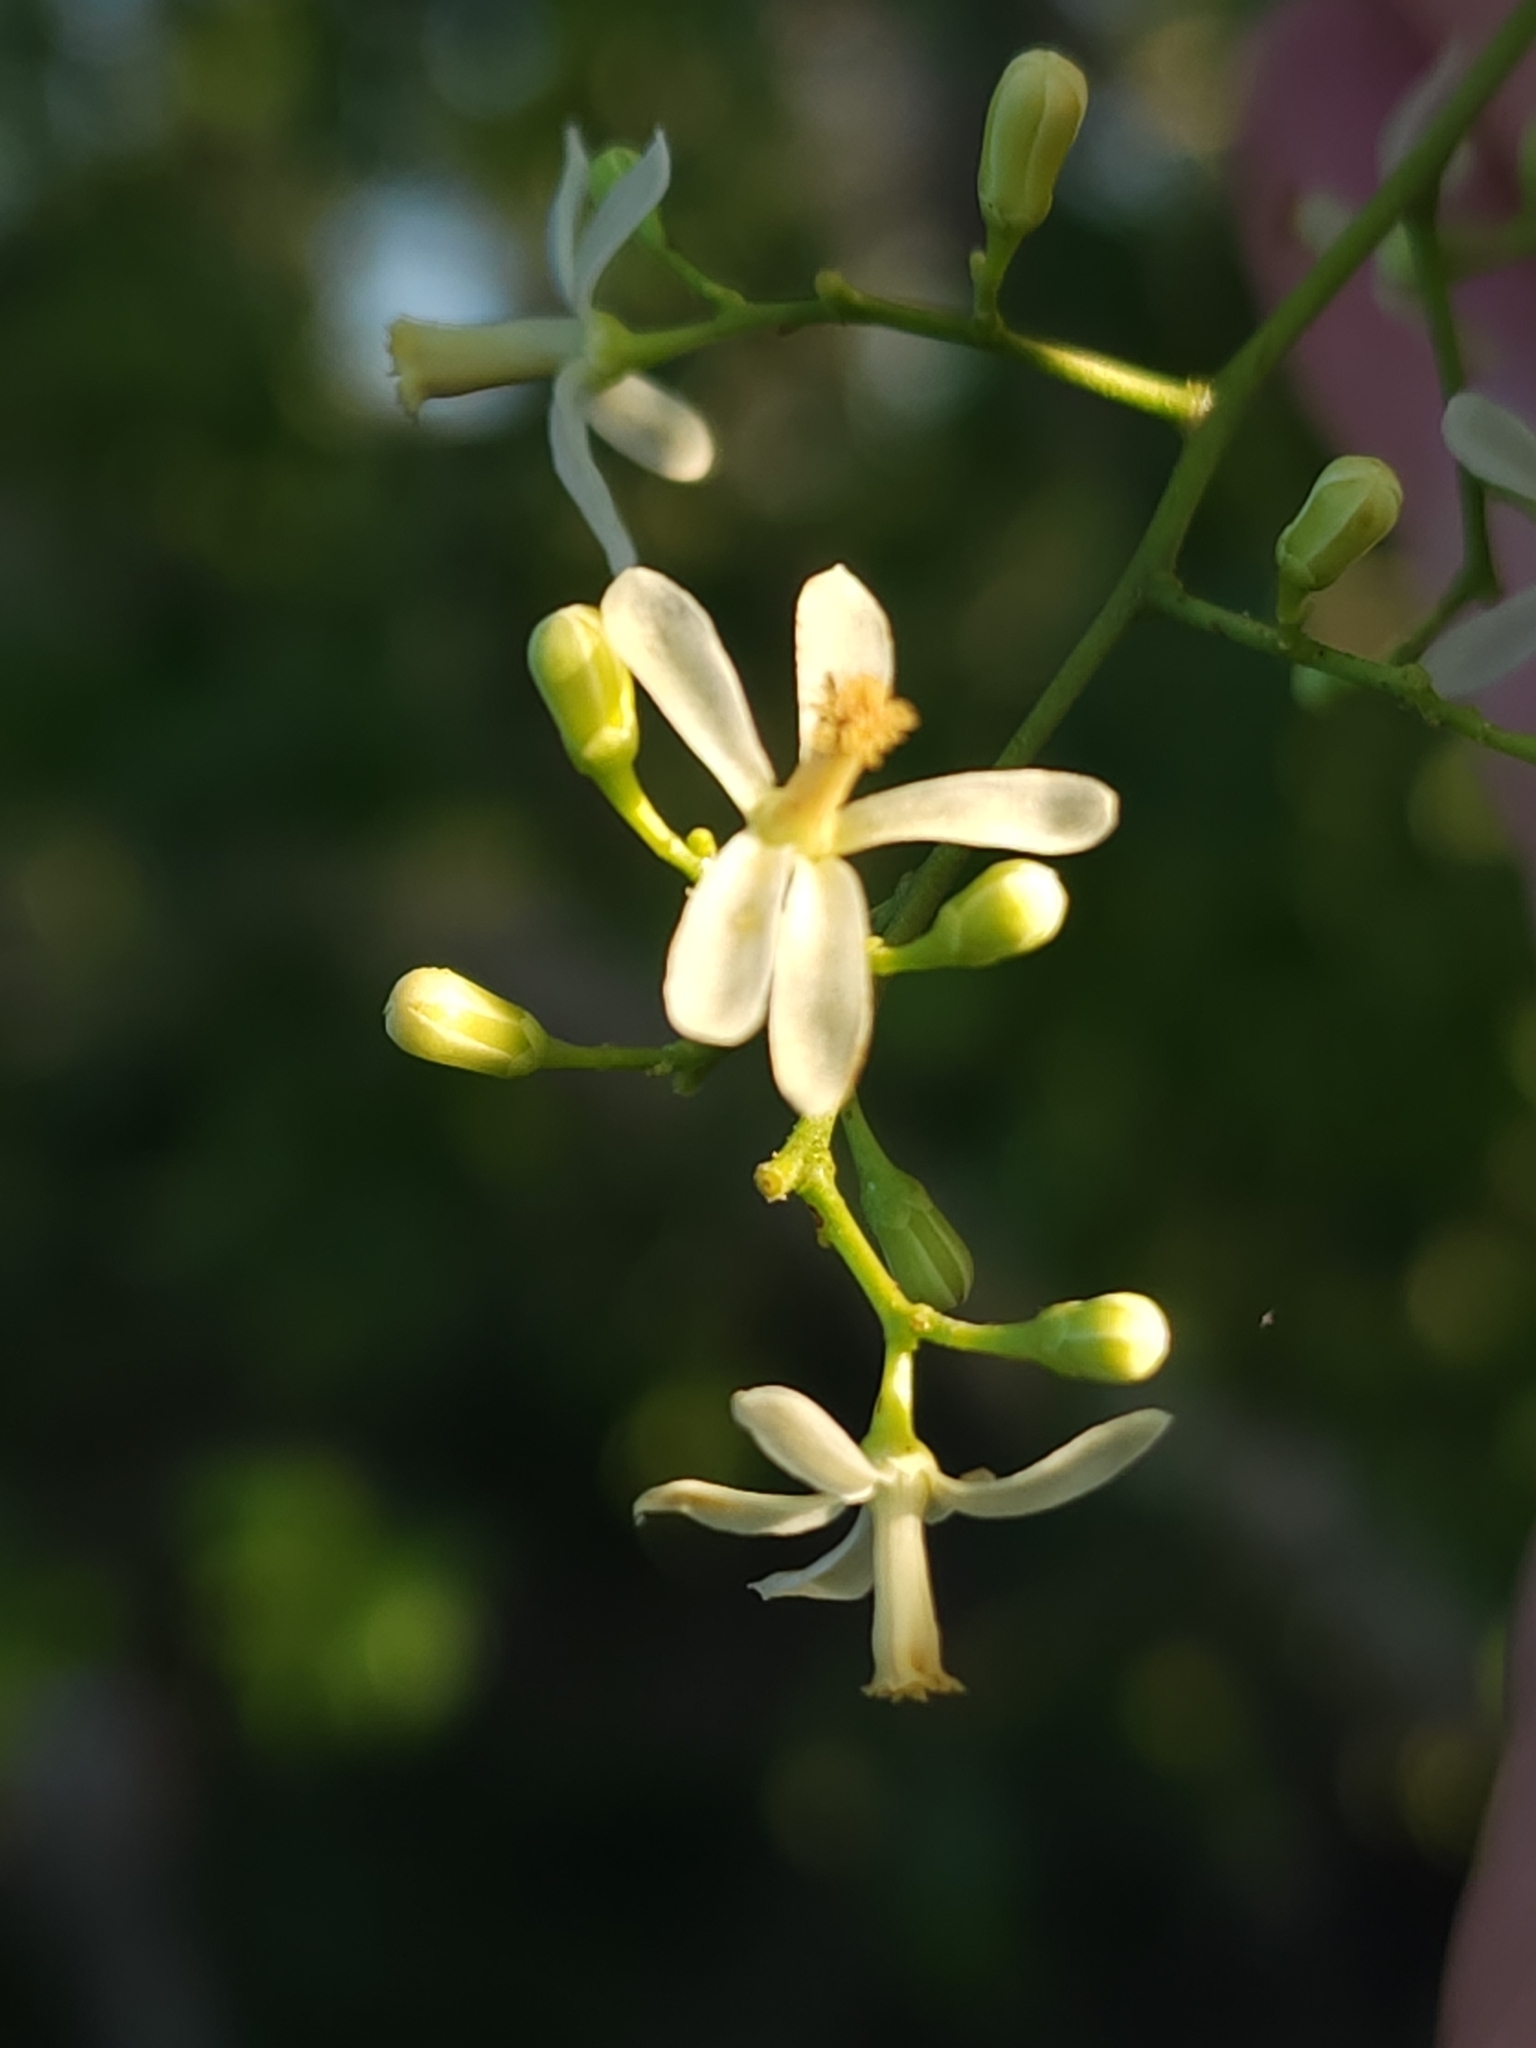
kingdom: Plantae
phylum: Tracheophyta
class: Magnoliopsida
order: Sapindales
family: Meliaceae
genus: Azadirachta
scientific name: Azadirachta indica
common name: Neem
